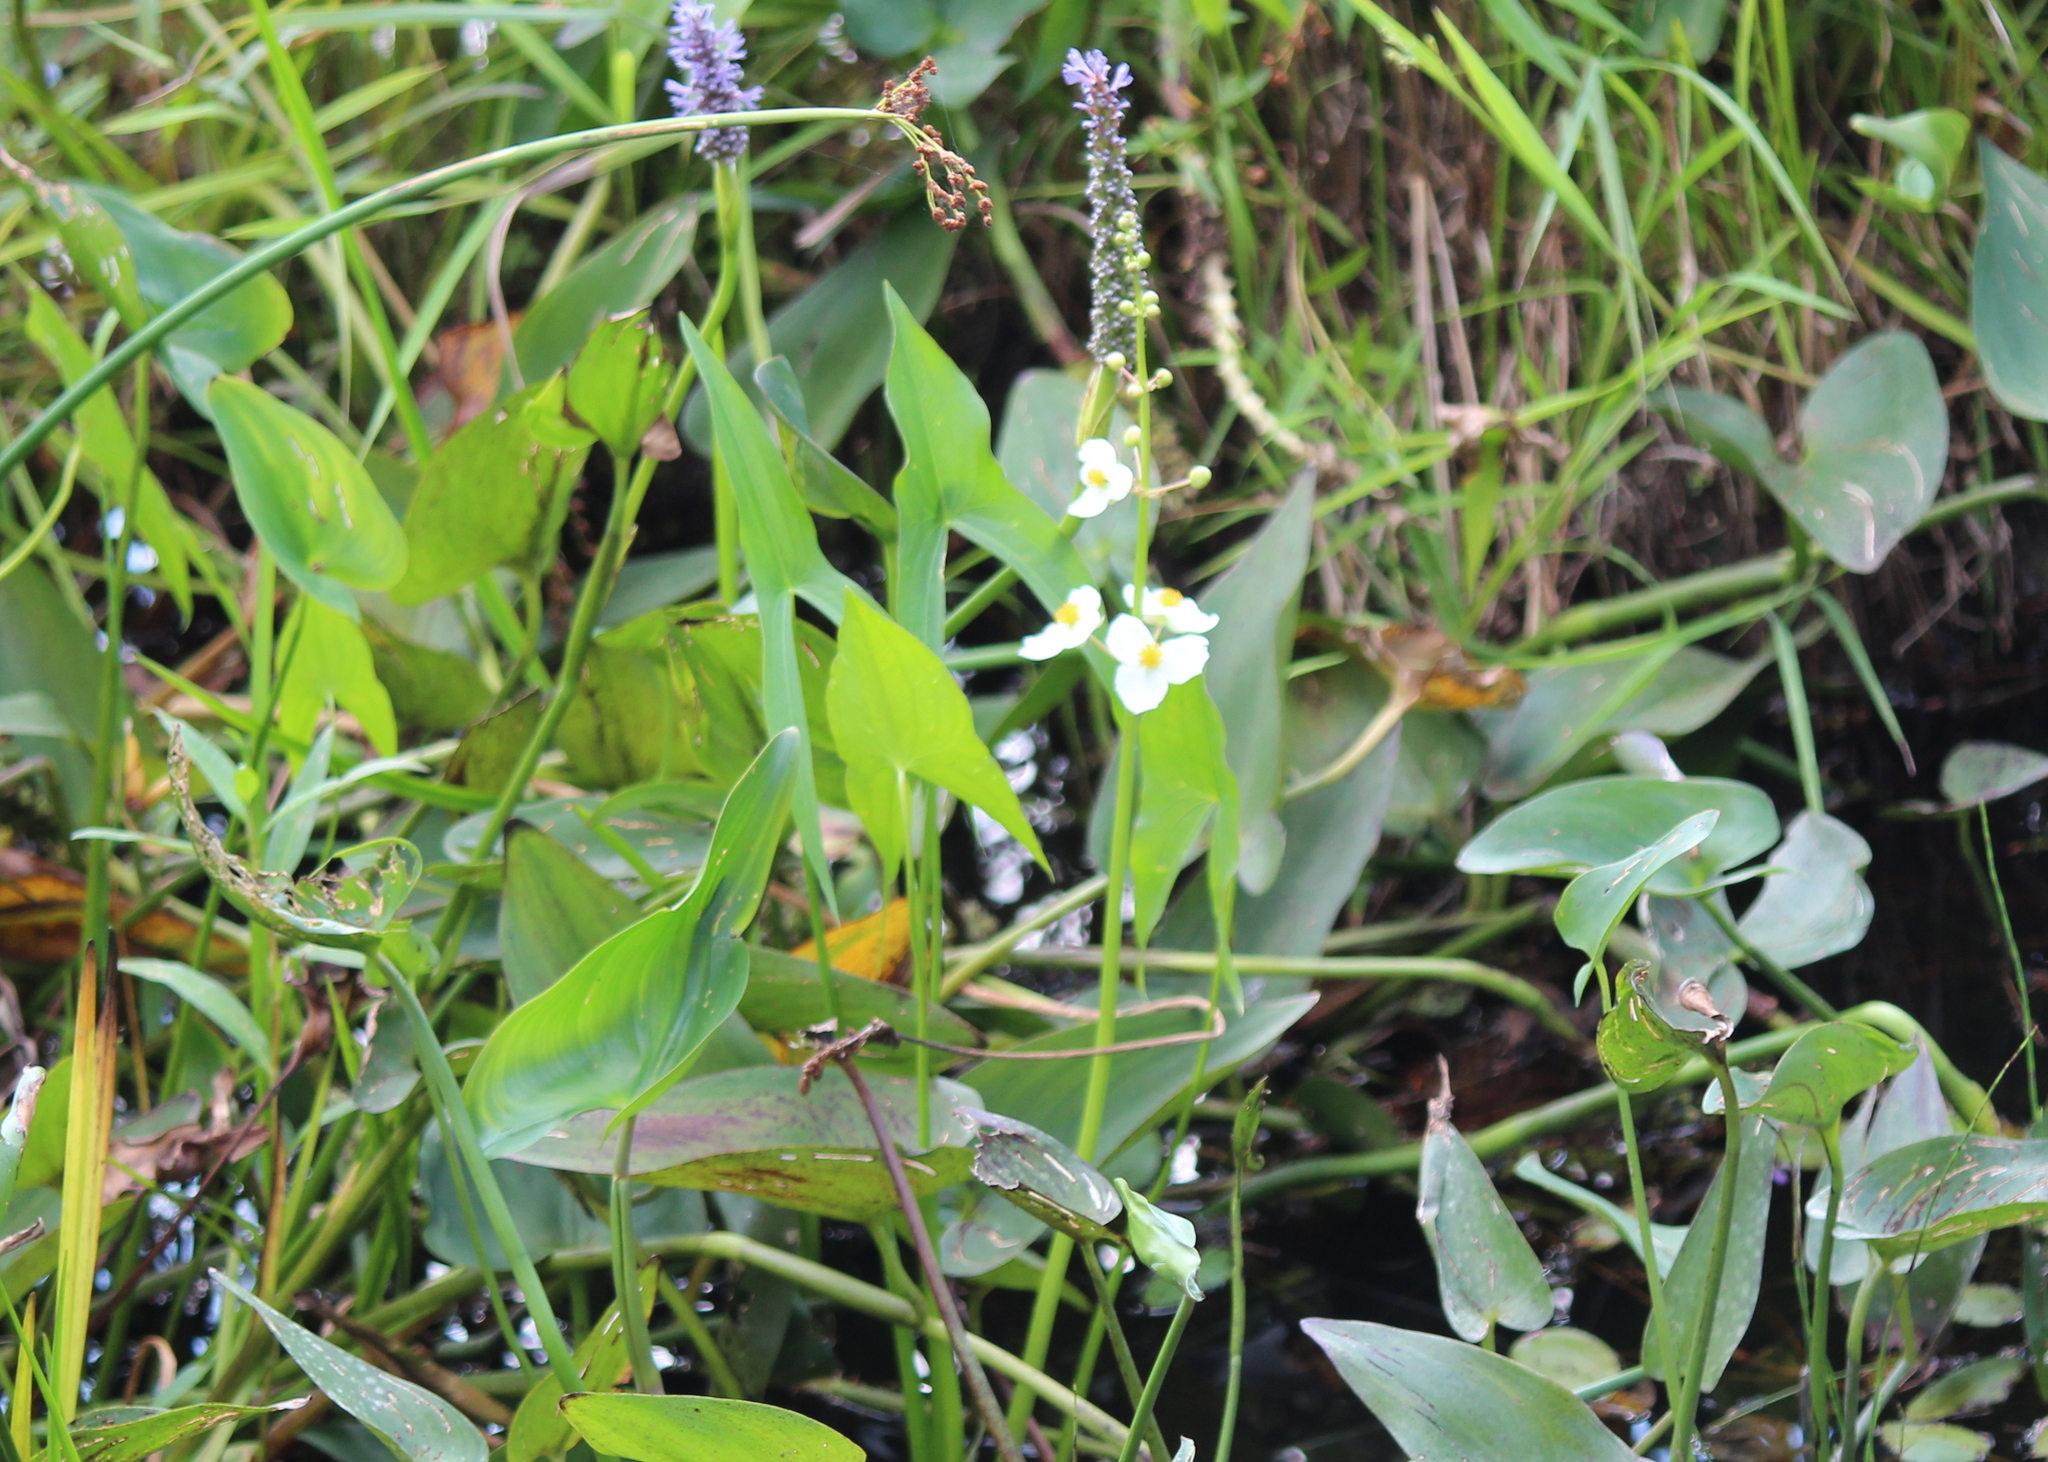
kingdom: Plantae
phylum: Tracheophyta
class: Liliopsida
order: Alismatales
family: Alismataceae
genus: Sagittaria
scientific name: Sagittaria latifolia
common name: Duck-potato
